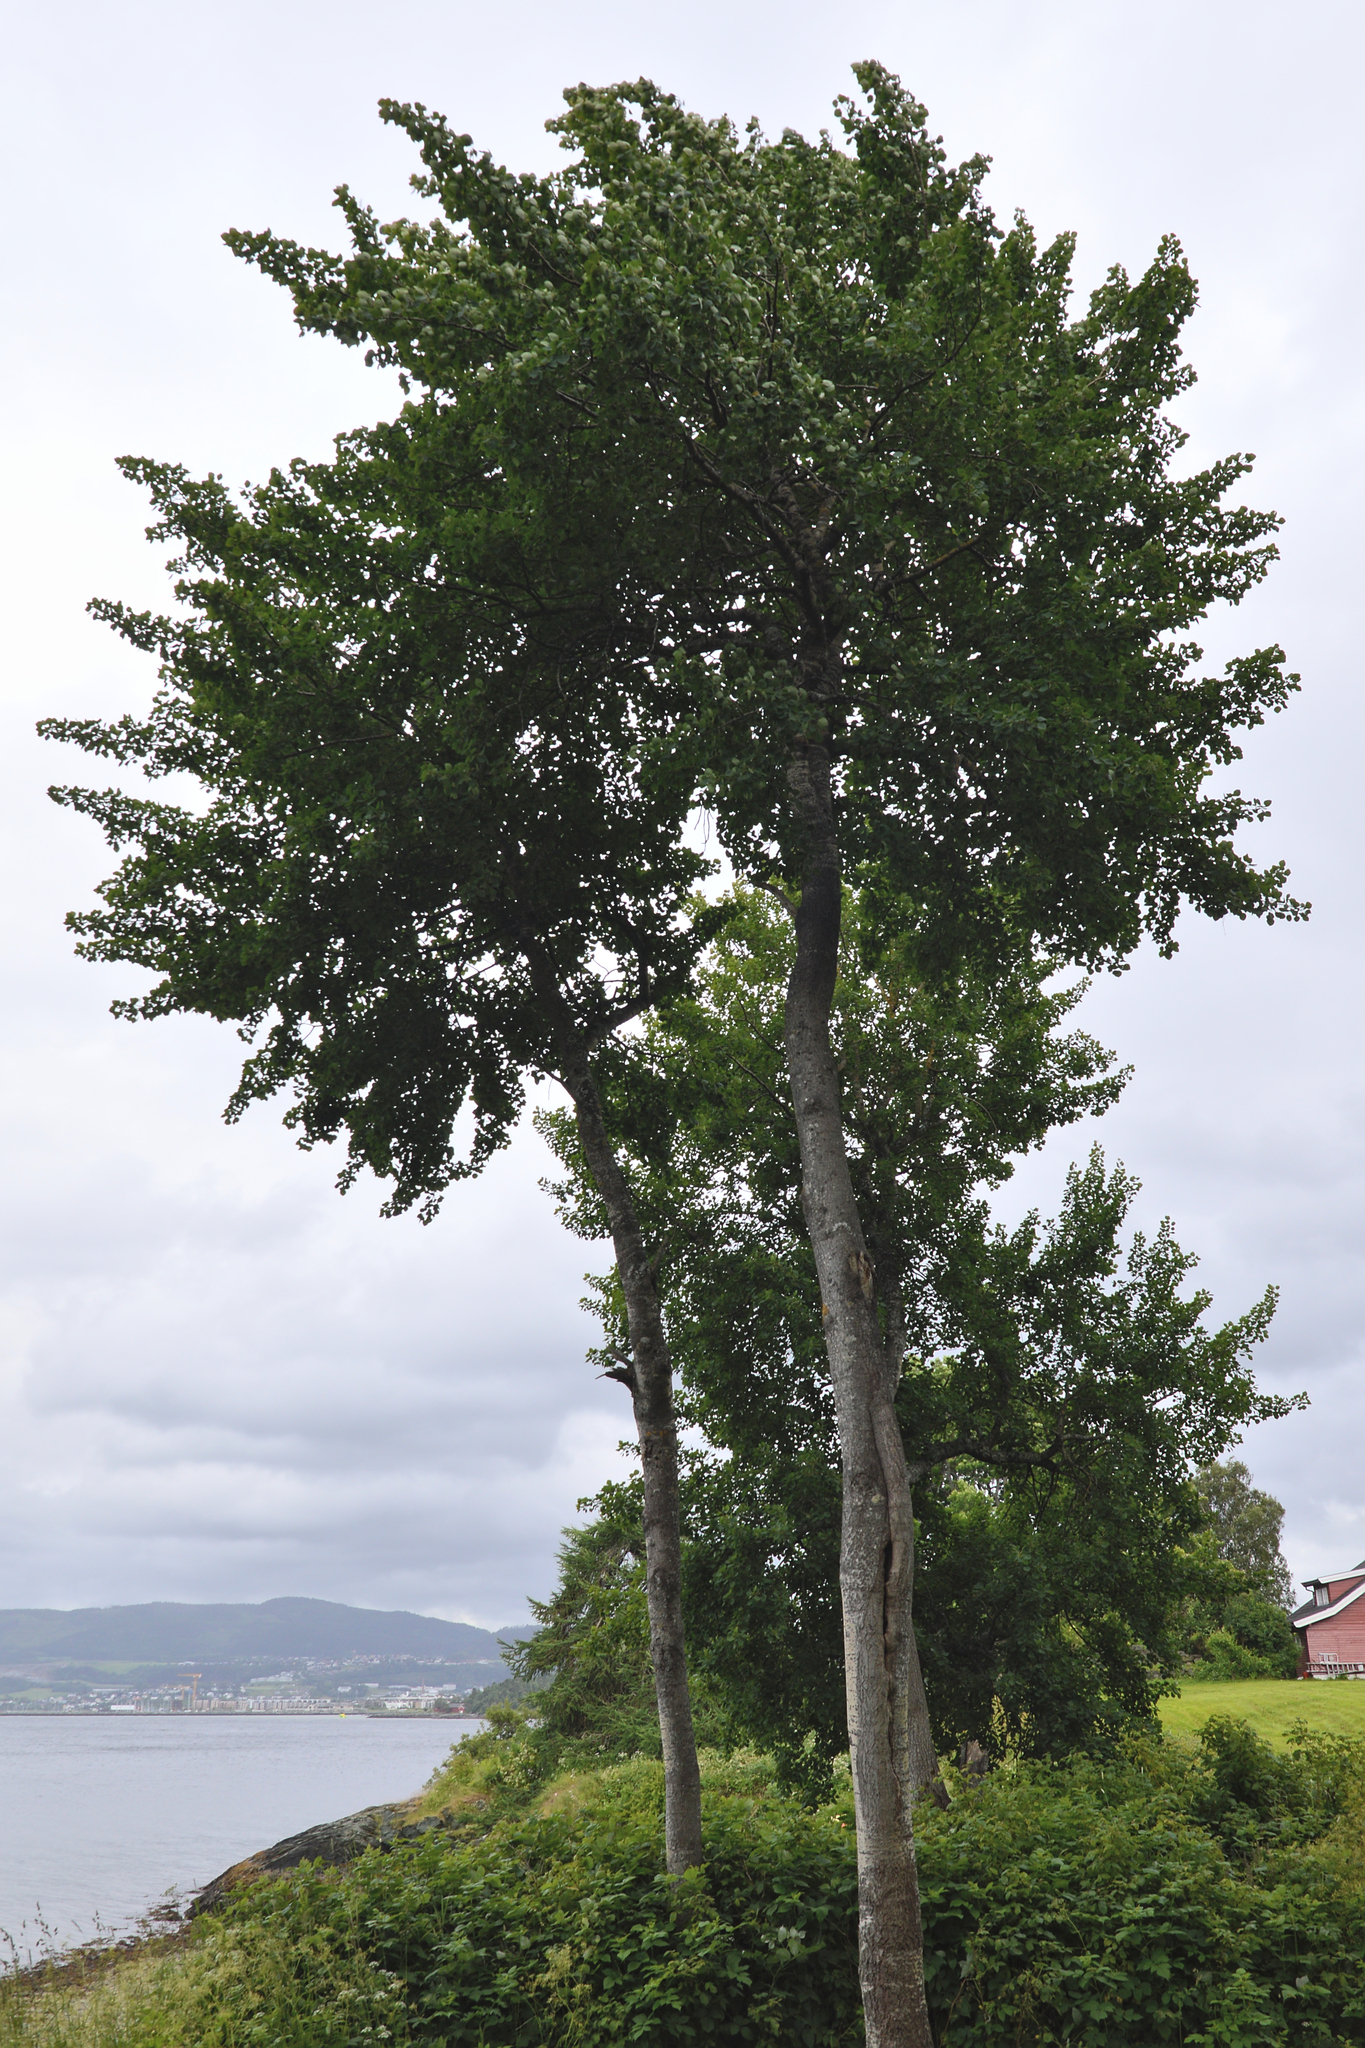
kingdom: Plantae
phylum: Tracheophyta
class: Magnoliopsida
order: Malpighiales
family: Salicaceae
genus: Populus
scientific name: Populus tremula
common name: European aspen
